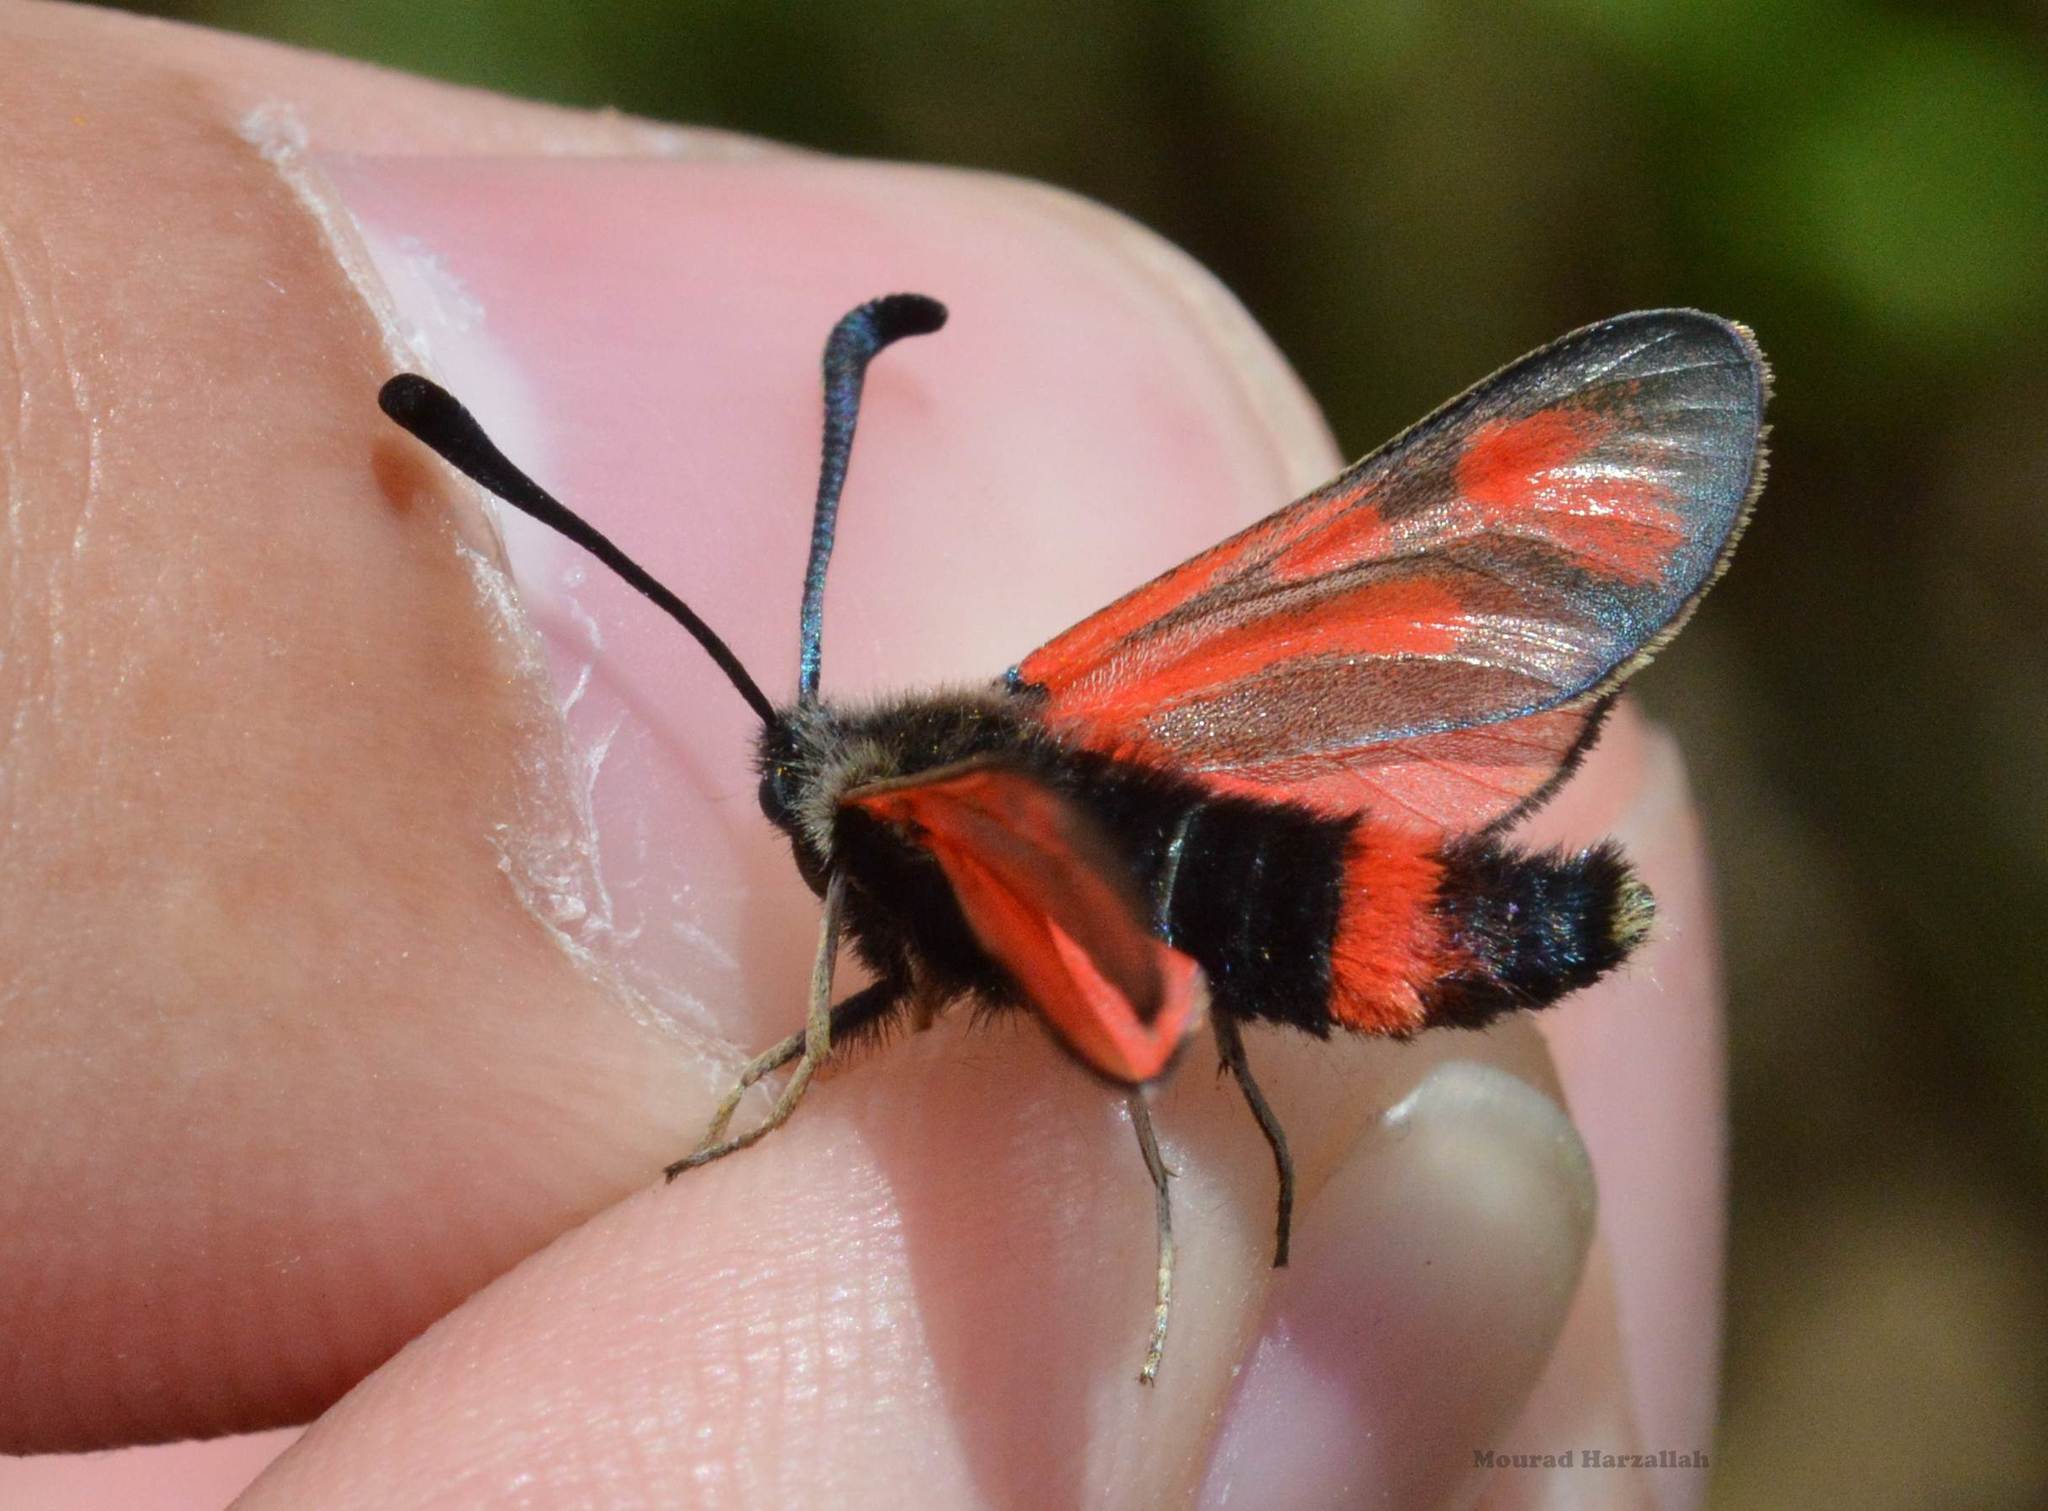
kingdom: Animalia
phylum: Arthropoda
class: Insecta
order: Lepidoptera
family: Zygaenidae
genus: Zygaena
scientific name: Zygaena favonia
